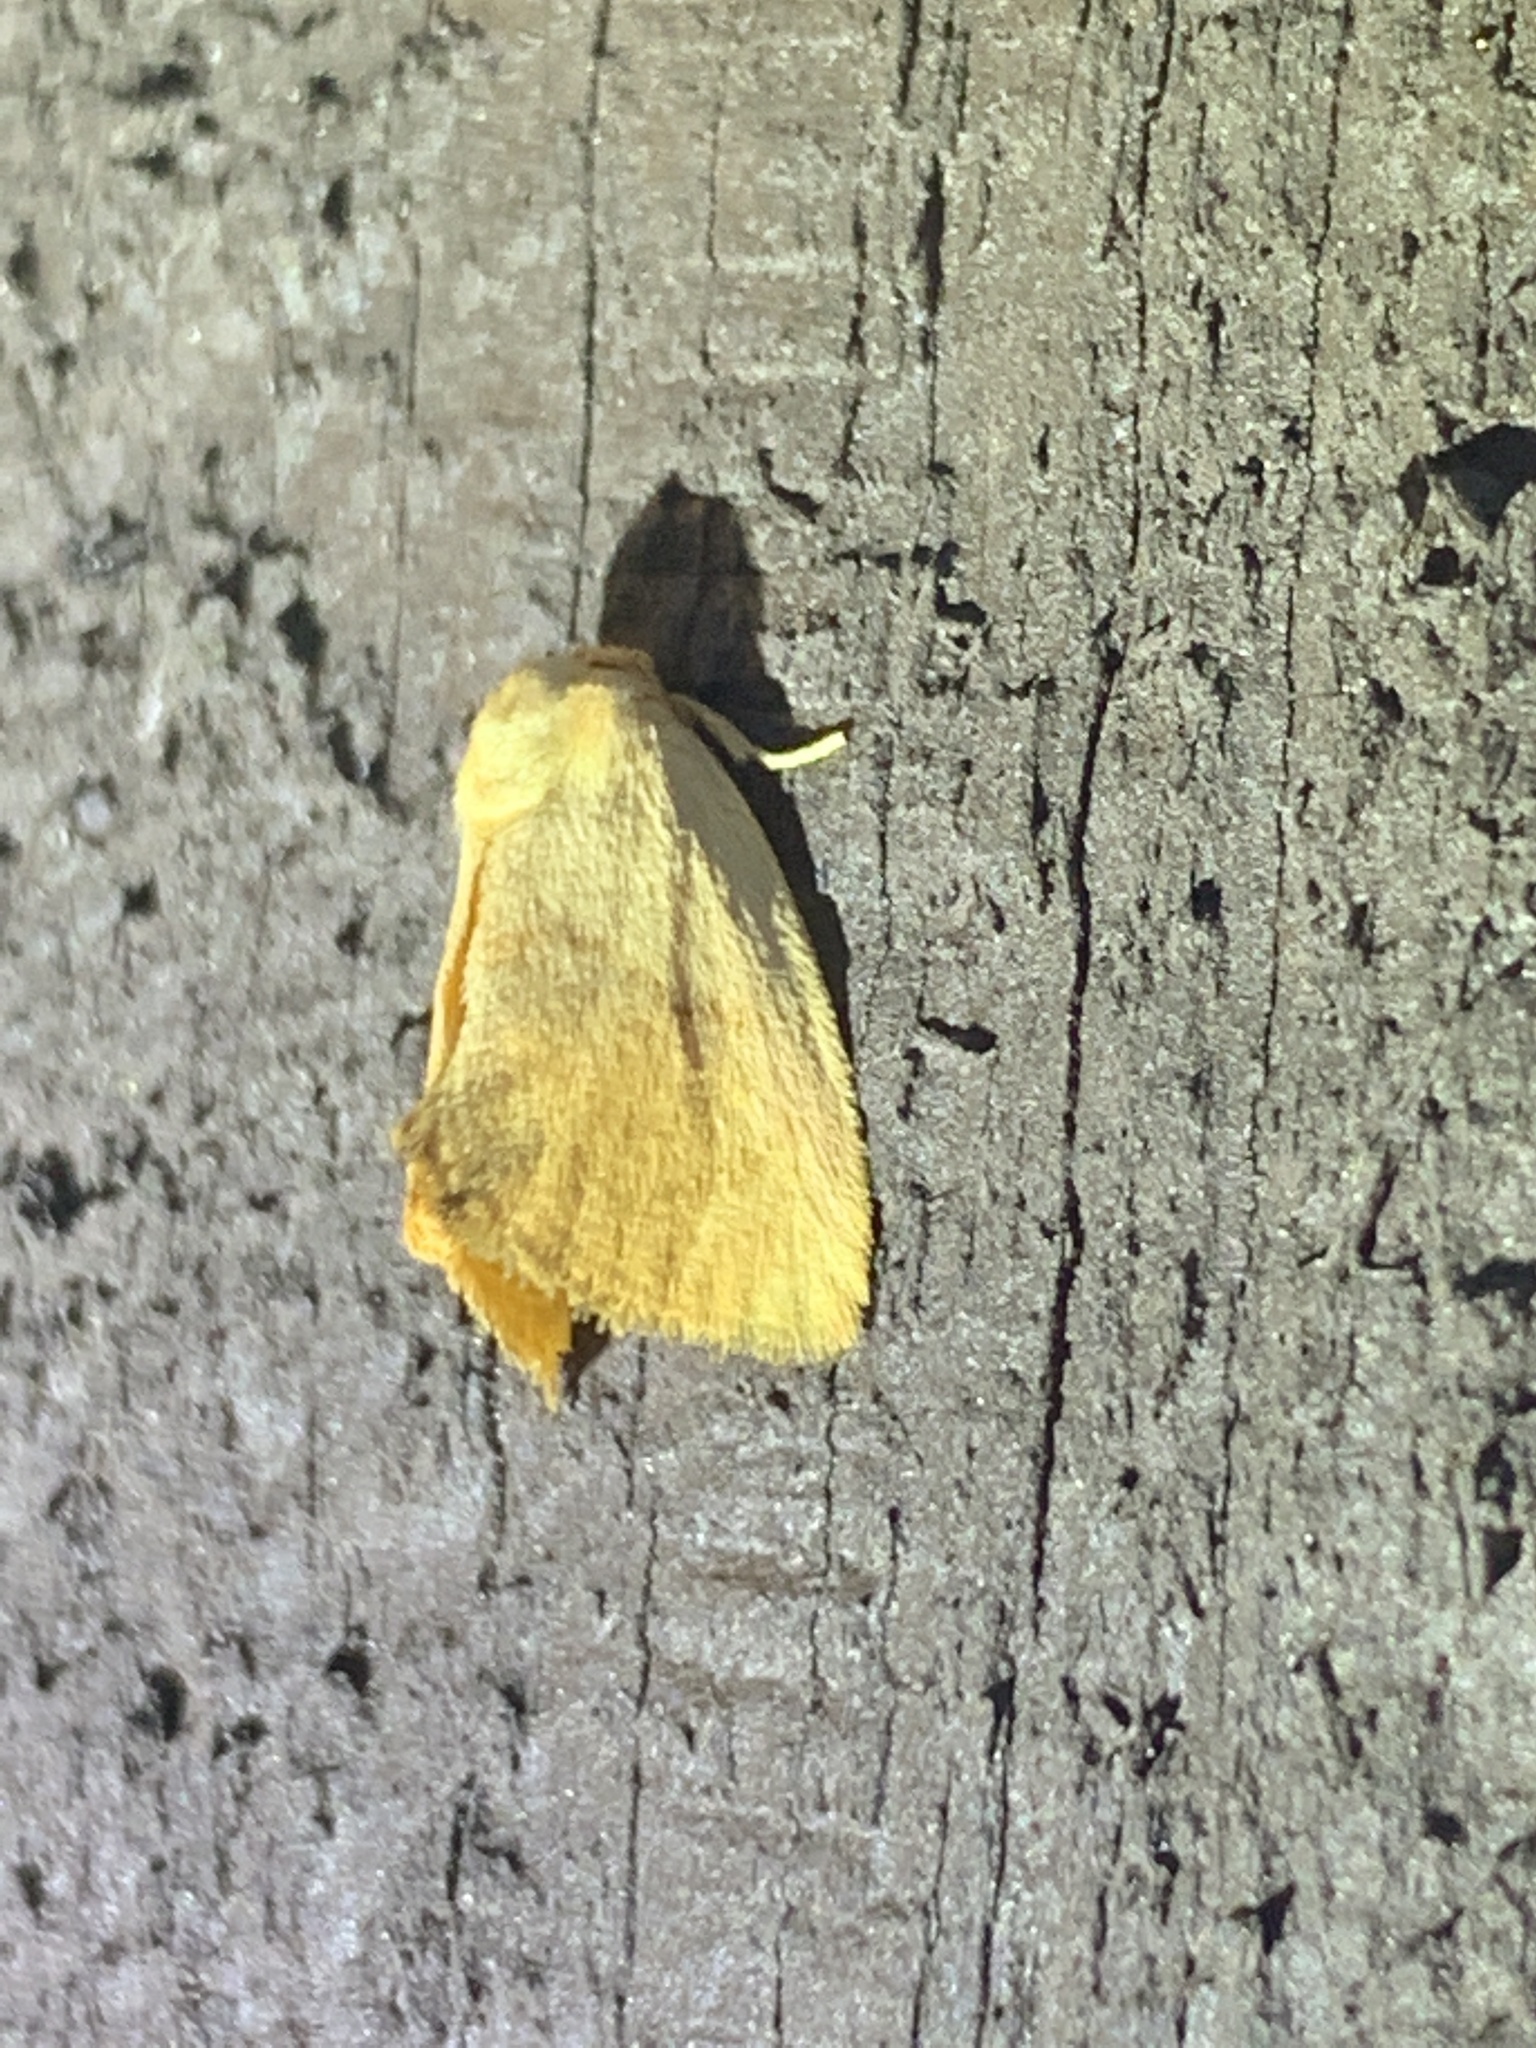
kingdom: Animalia
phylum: Arthropoda
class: Insecta
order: Lepidoptera
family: Limacodidae
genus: Tortricidia
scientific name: Tortricidia pallida
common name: Red-crossed button slug moth
